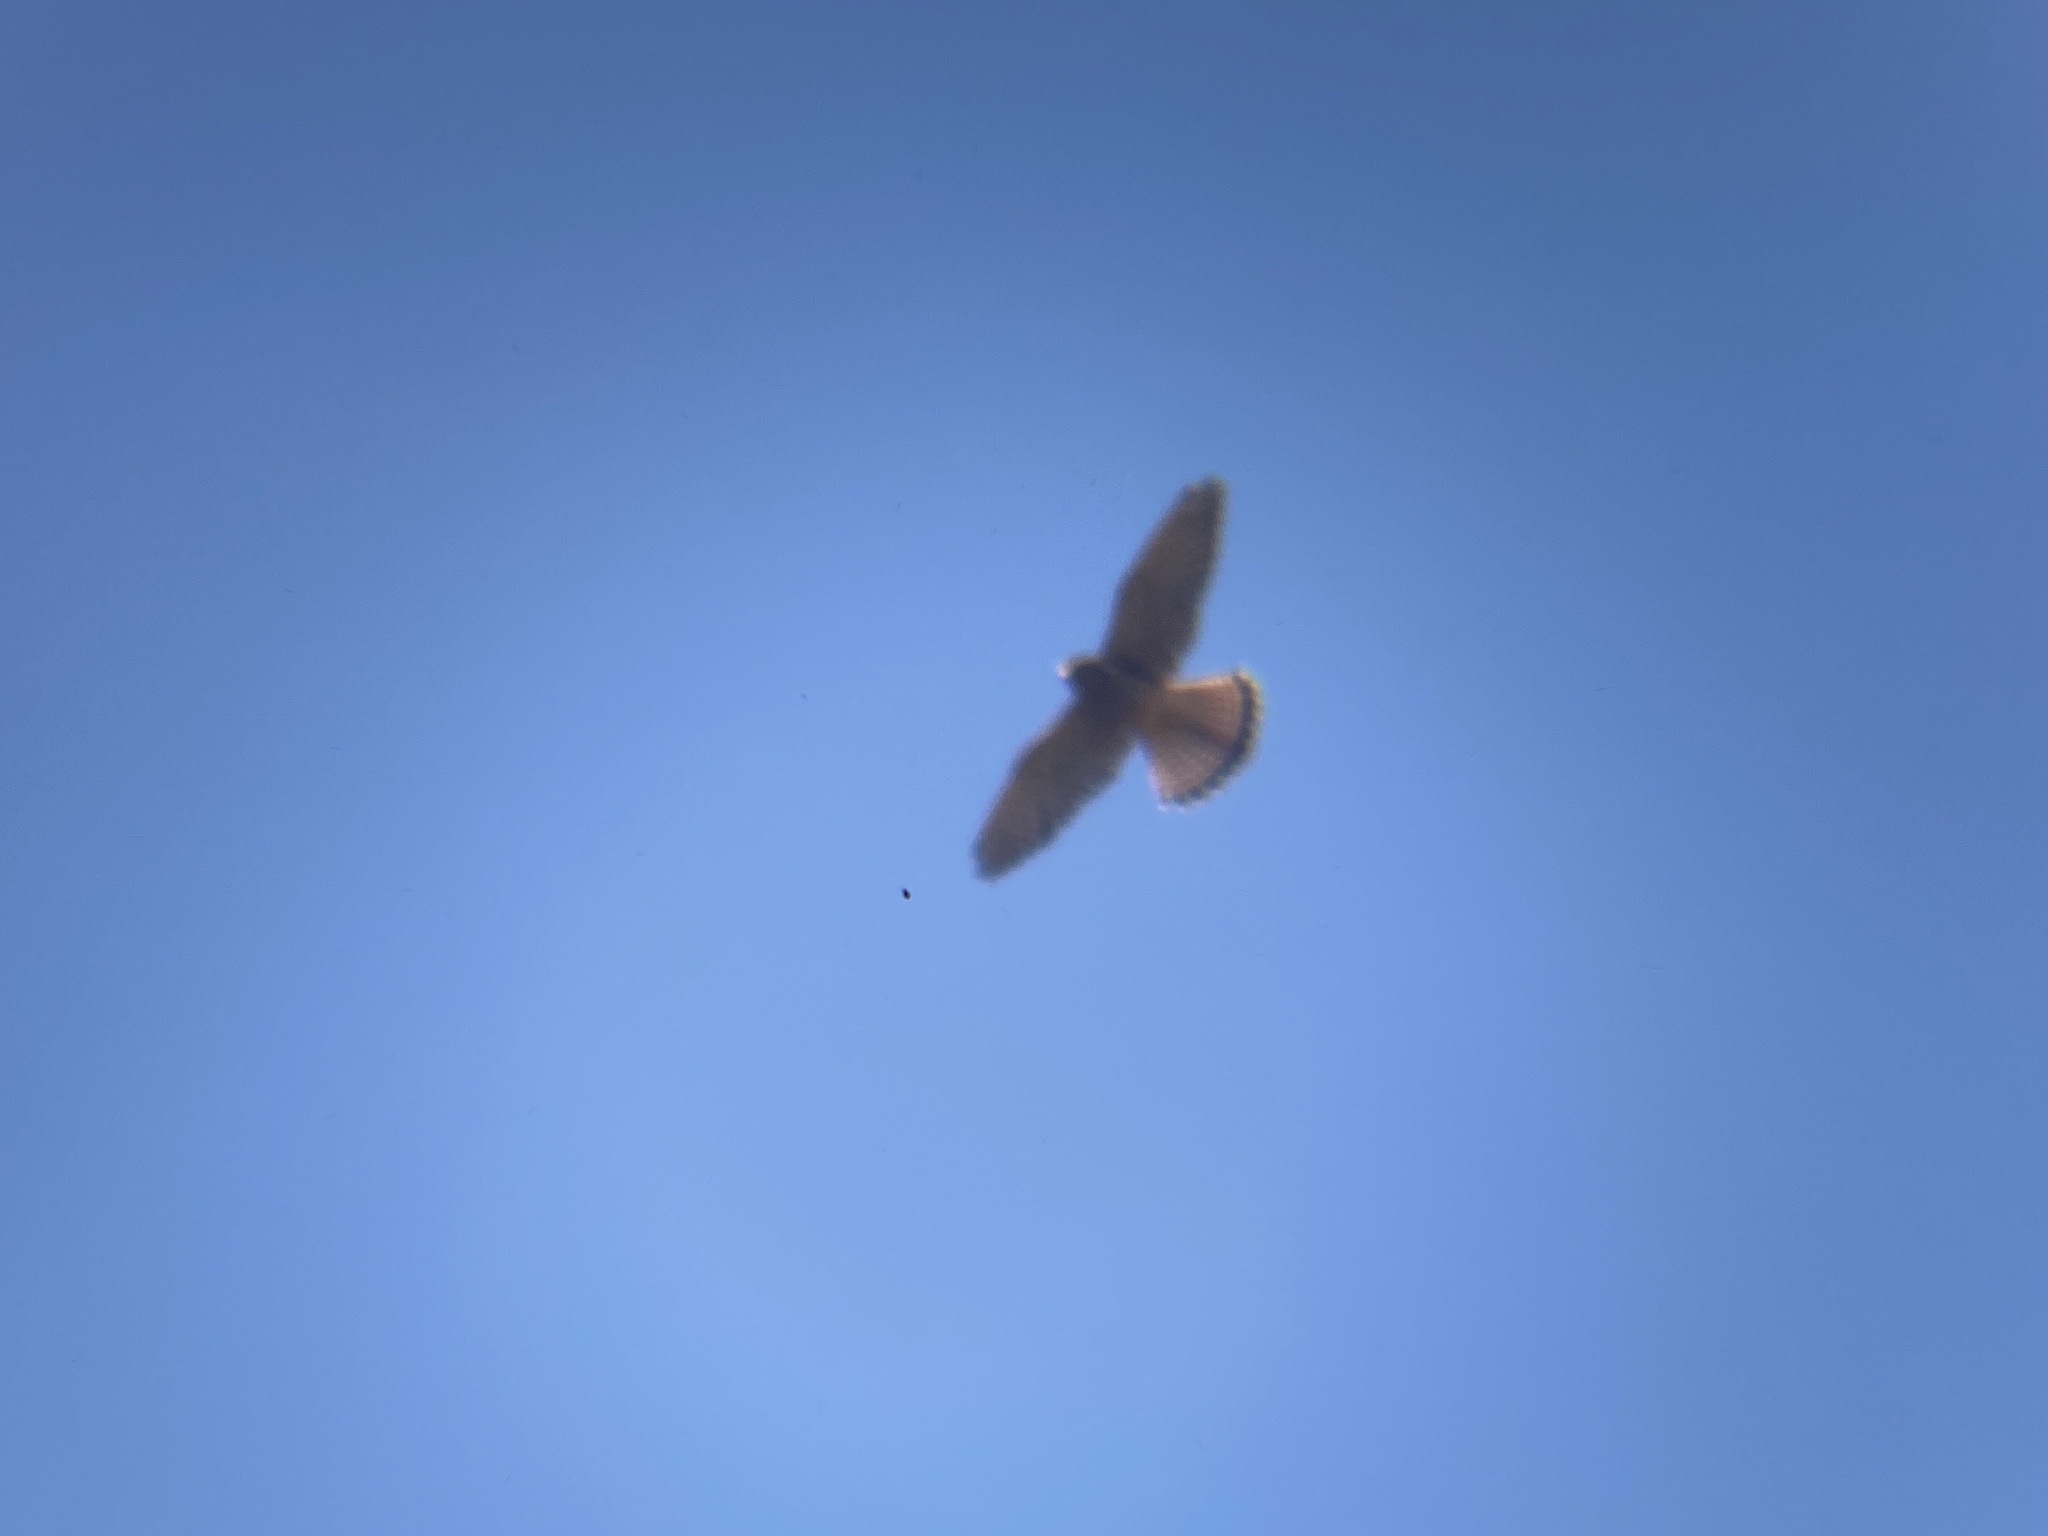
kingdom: Animalia
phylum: Chordata
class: Aves
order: Falconiformes
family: Falconidae
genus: Falco
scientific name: Falco tinnunculus
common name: Common kestrel
